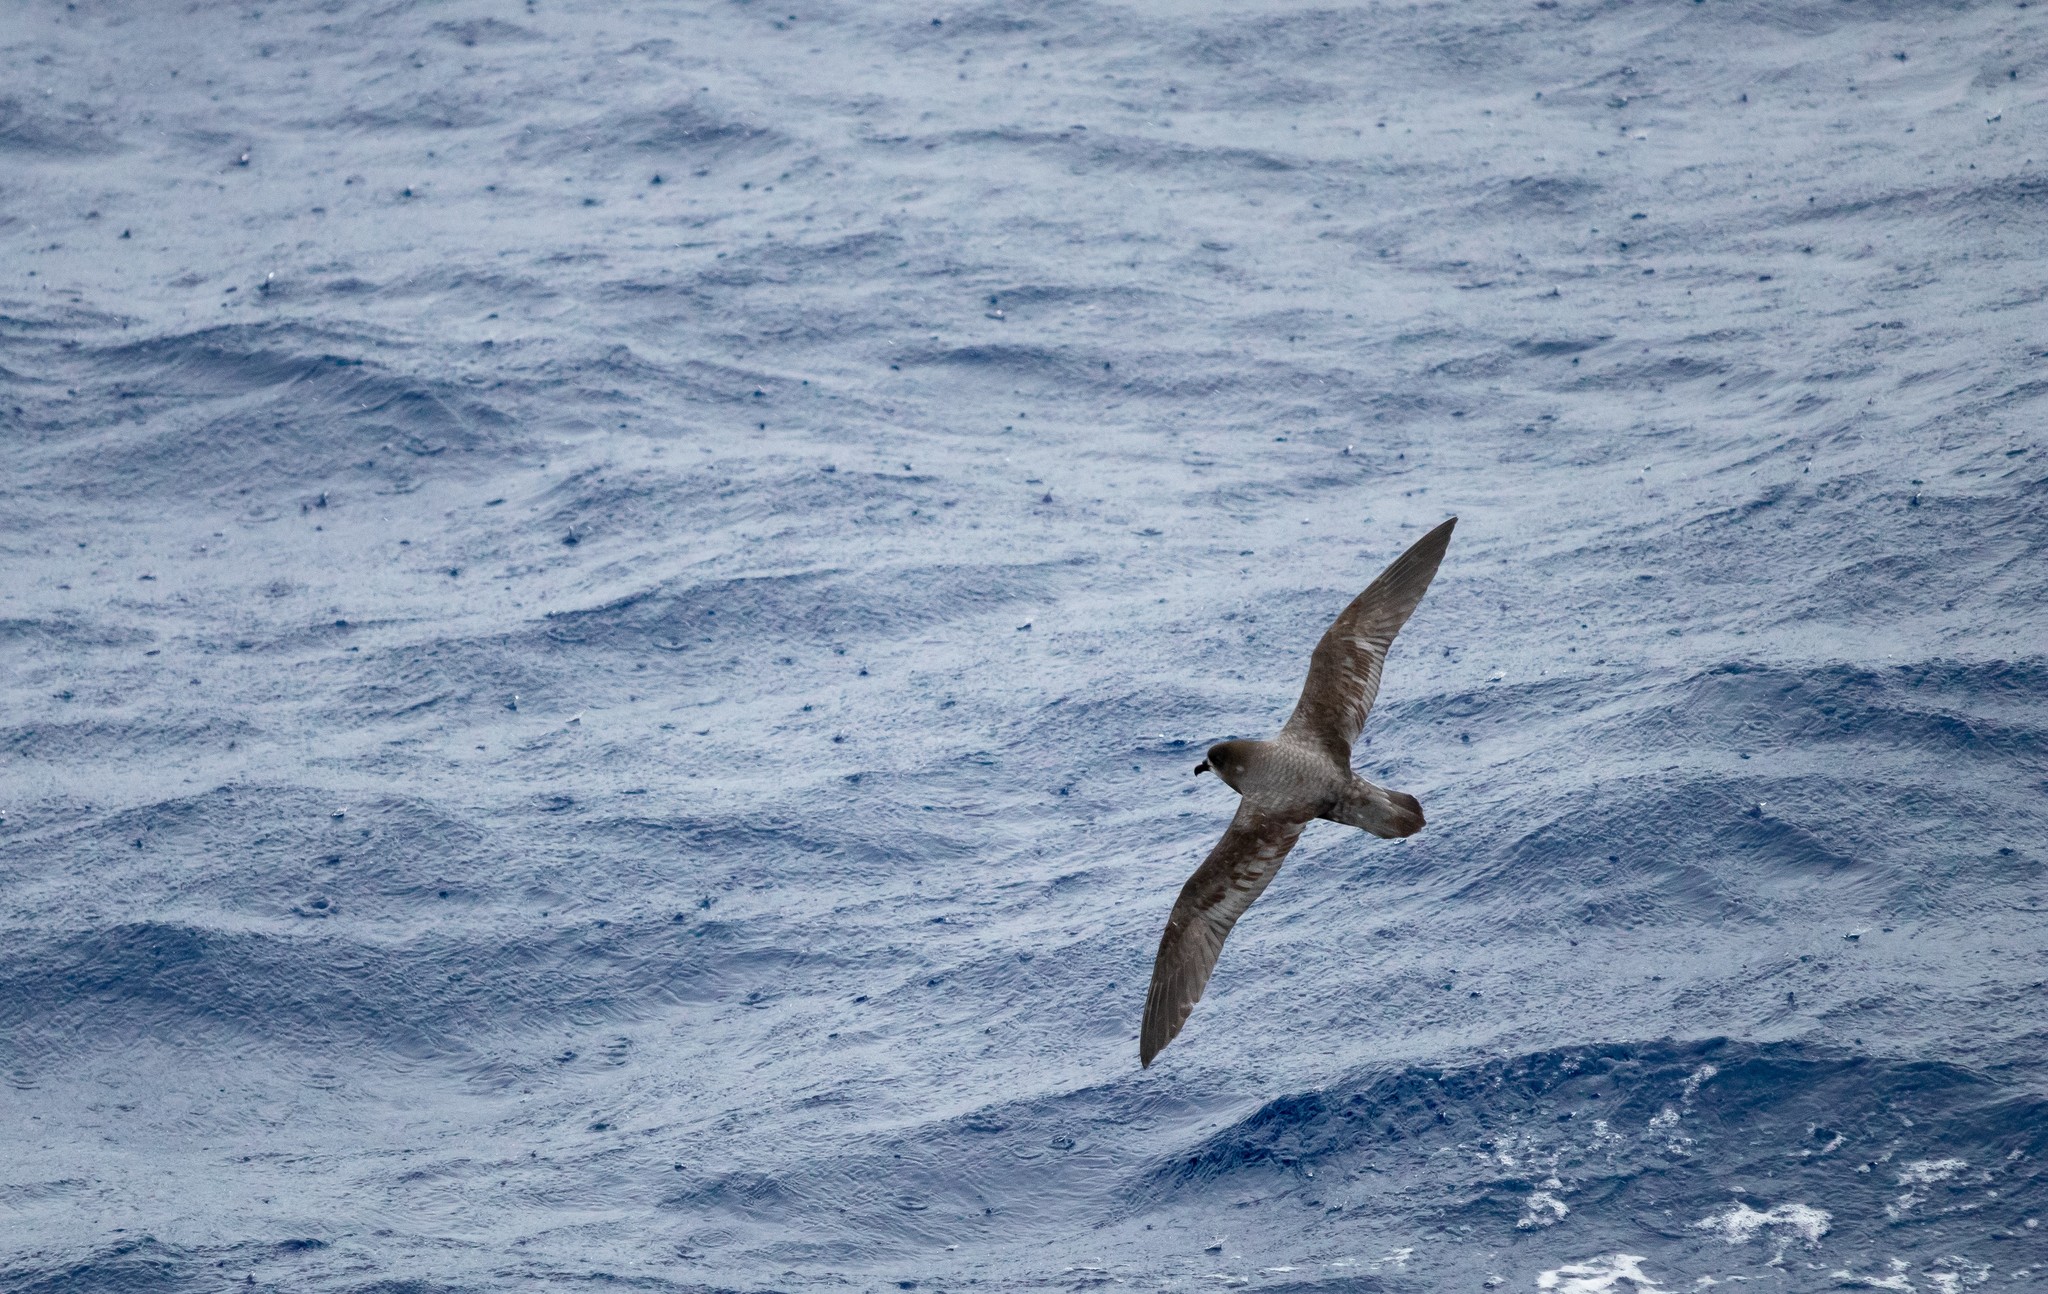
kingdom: Animalia
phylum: Chordata
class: Aves
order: Procellariiformes
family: Procellariidae
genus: Pterodroma
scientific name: Pterodroma ultima
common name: Murphy's petrel
